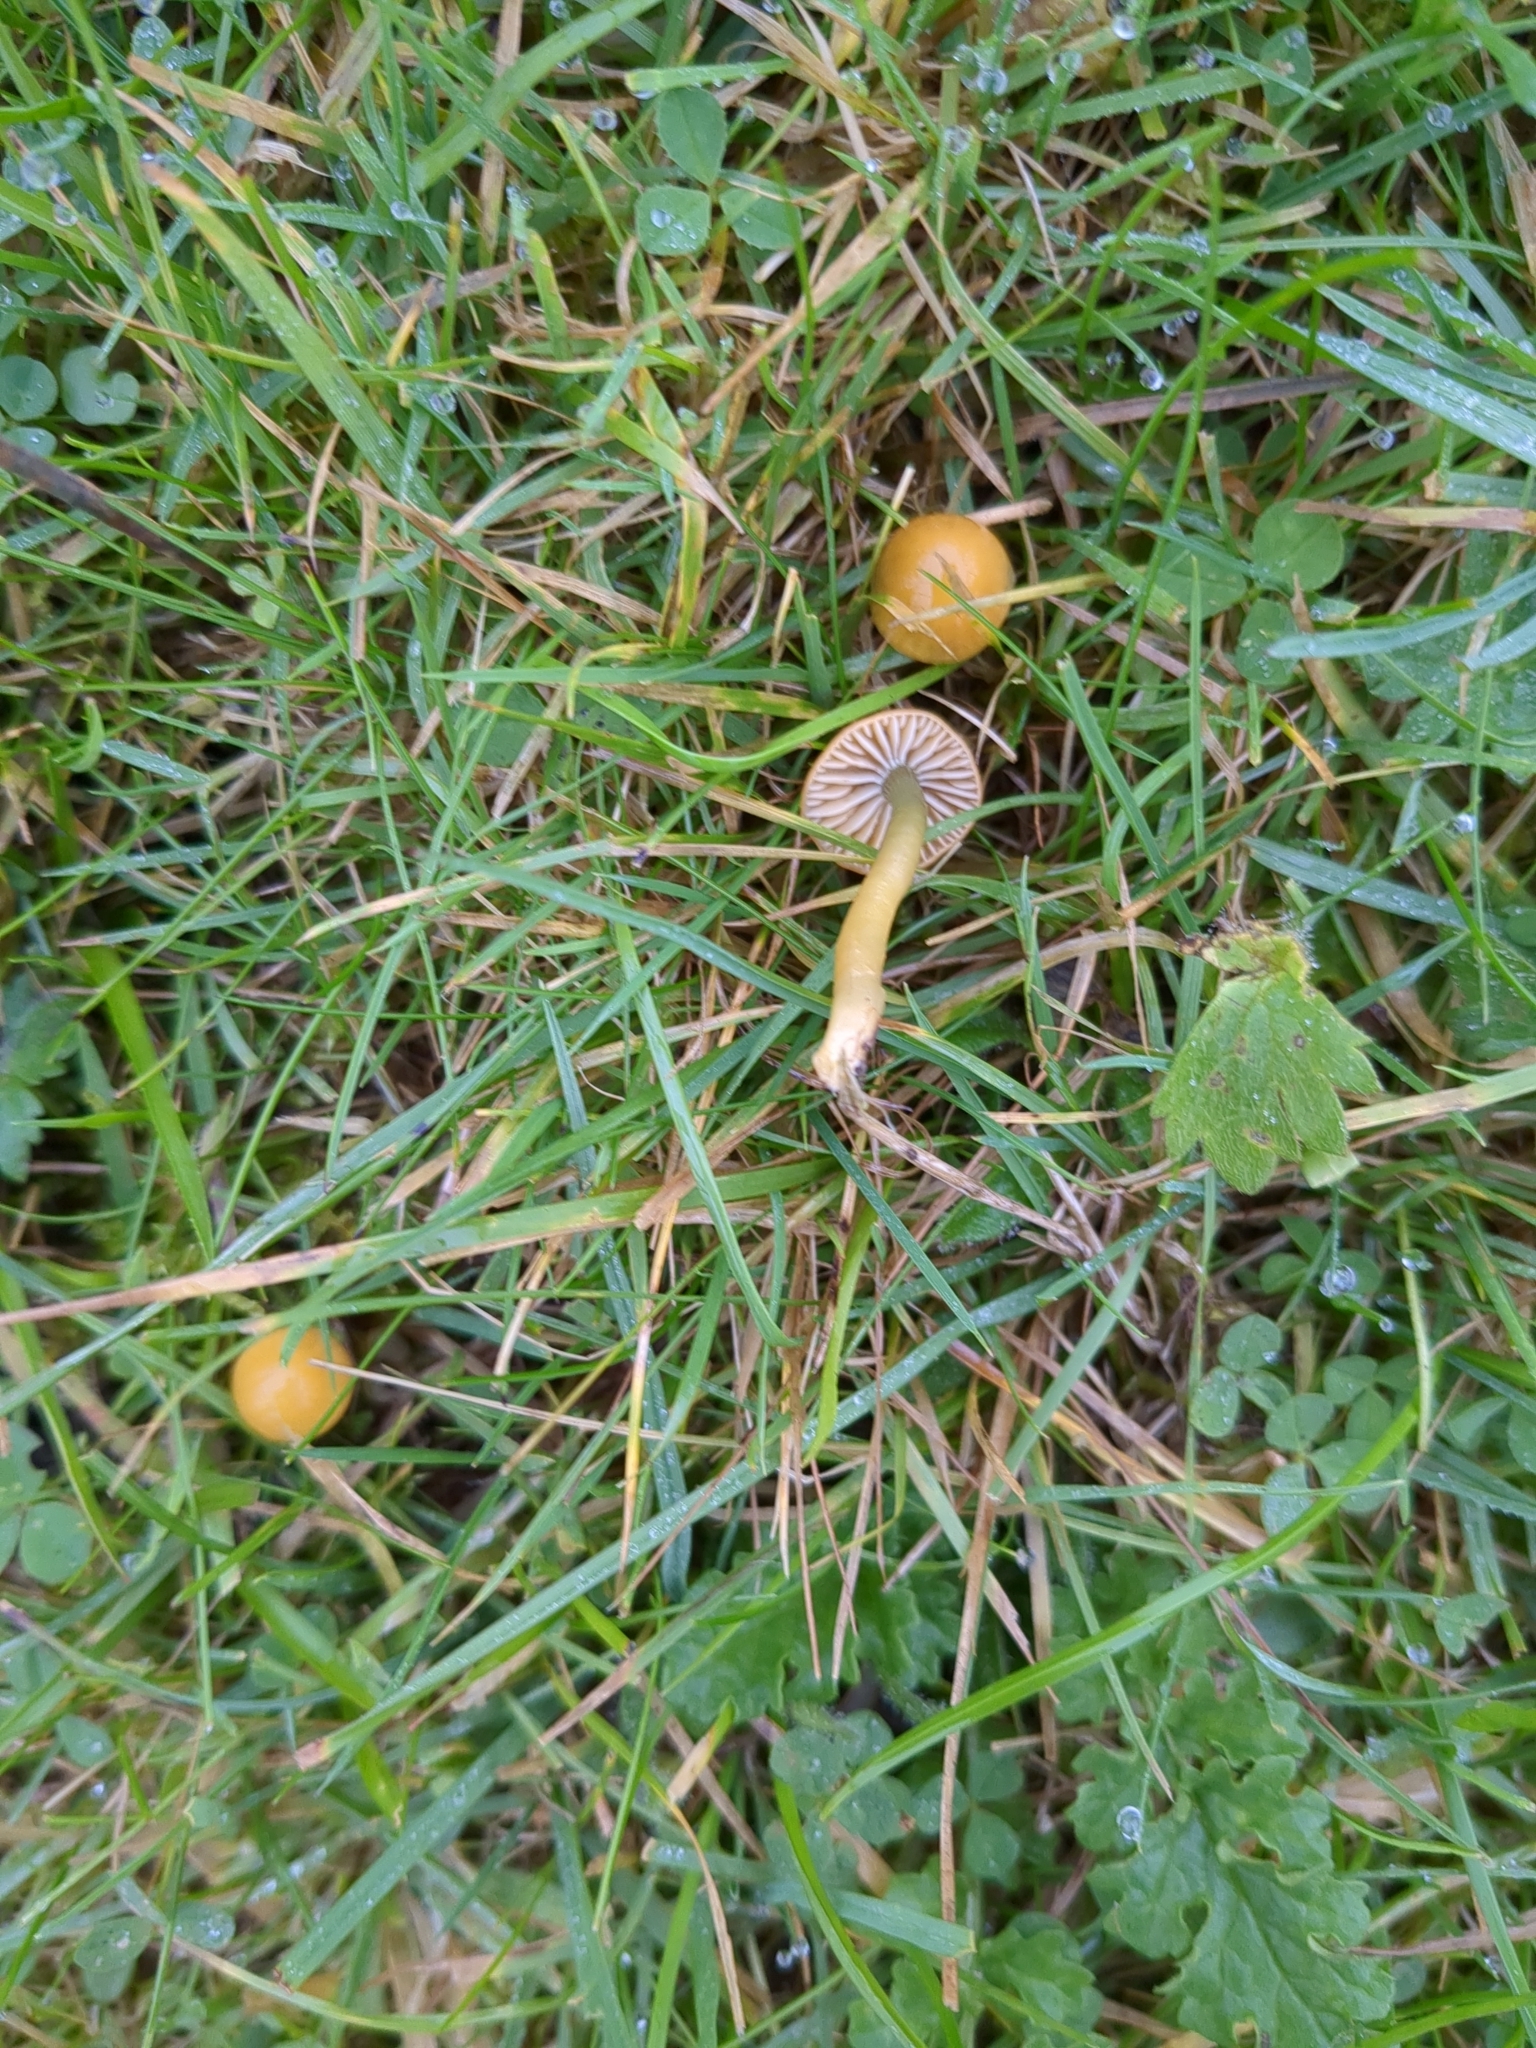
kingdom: Fungi
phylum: Basidiomycota
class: Agaricomycetes
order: Agaricales
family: Hygrophoraceae
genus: Gliophorus
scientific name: Gliophorus psittacinus
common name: Parrot wax-cap
